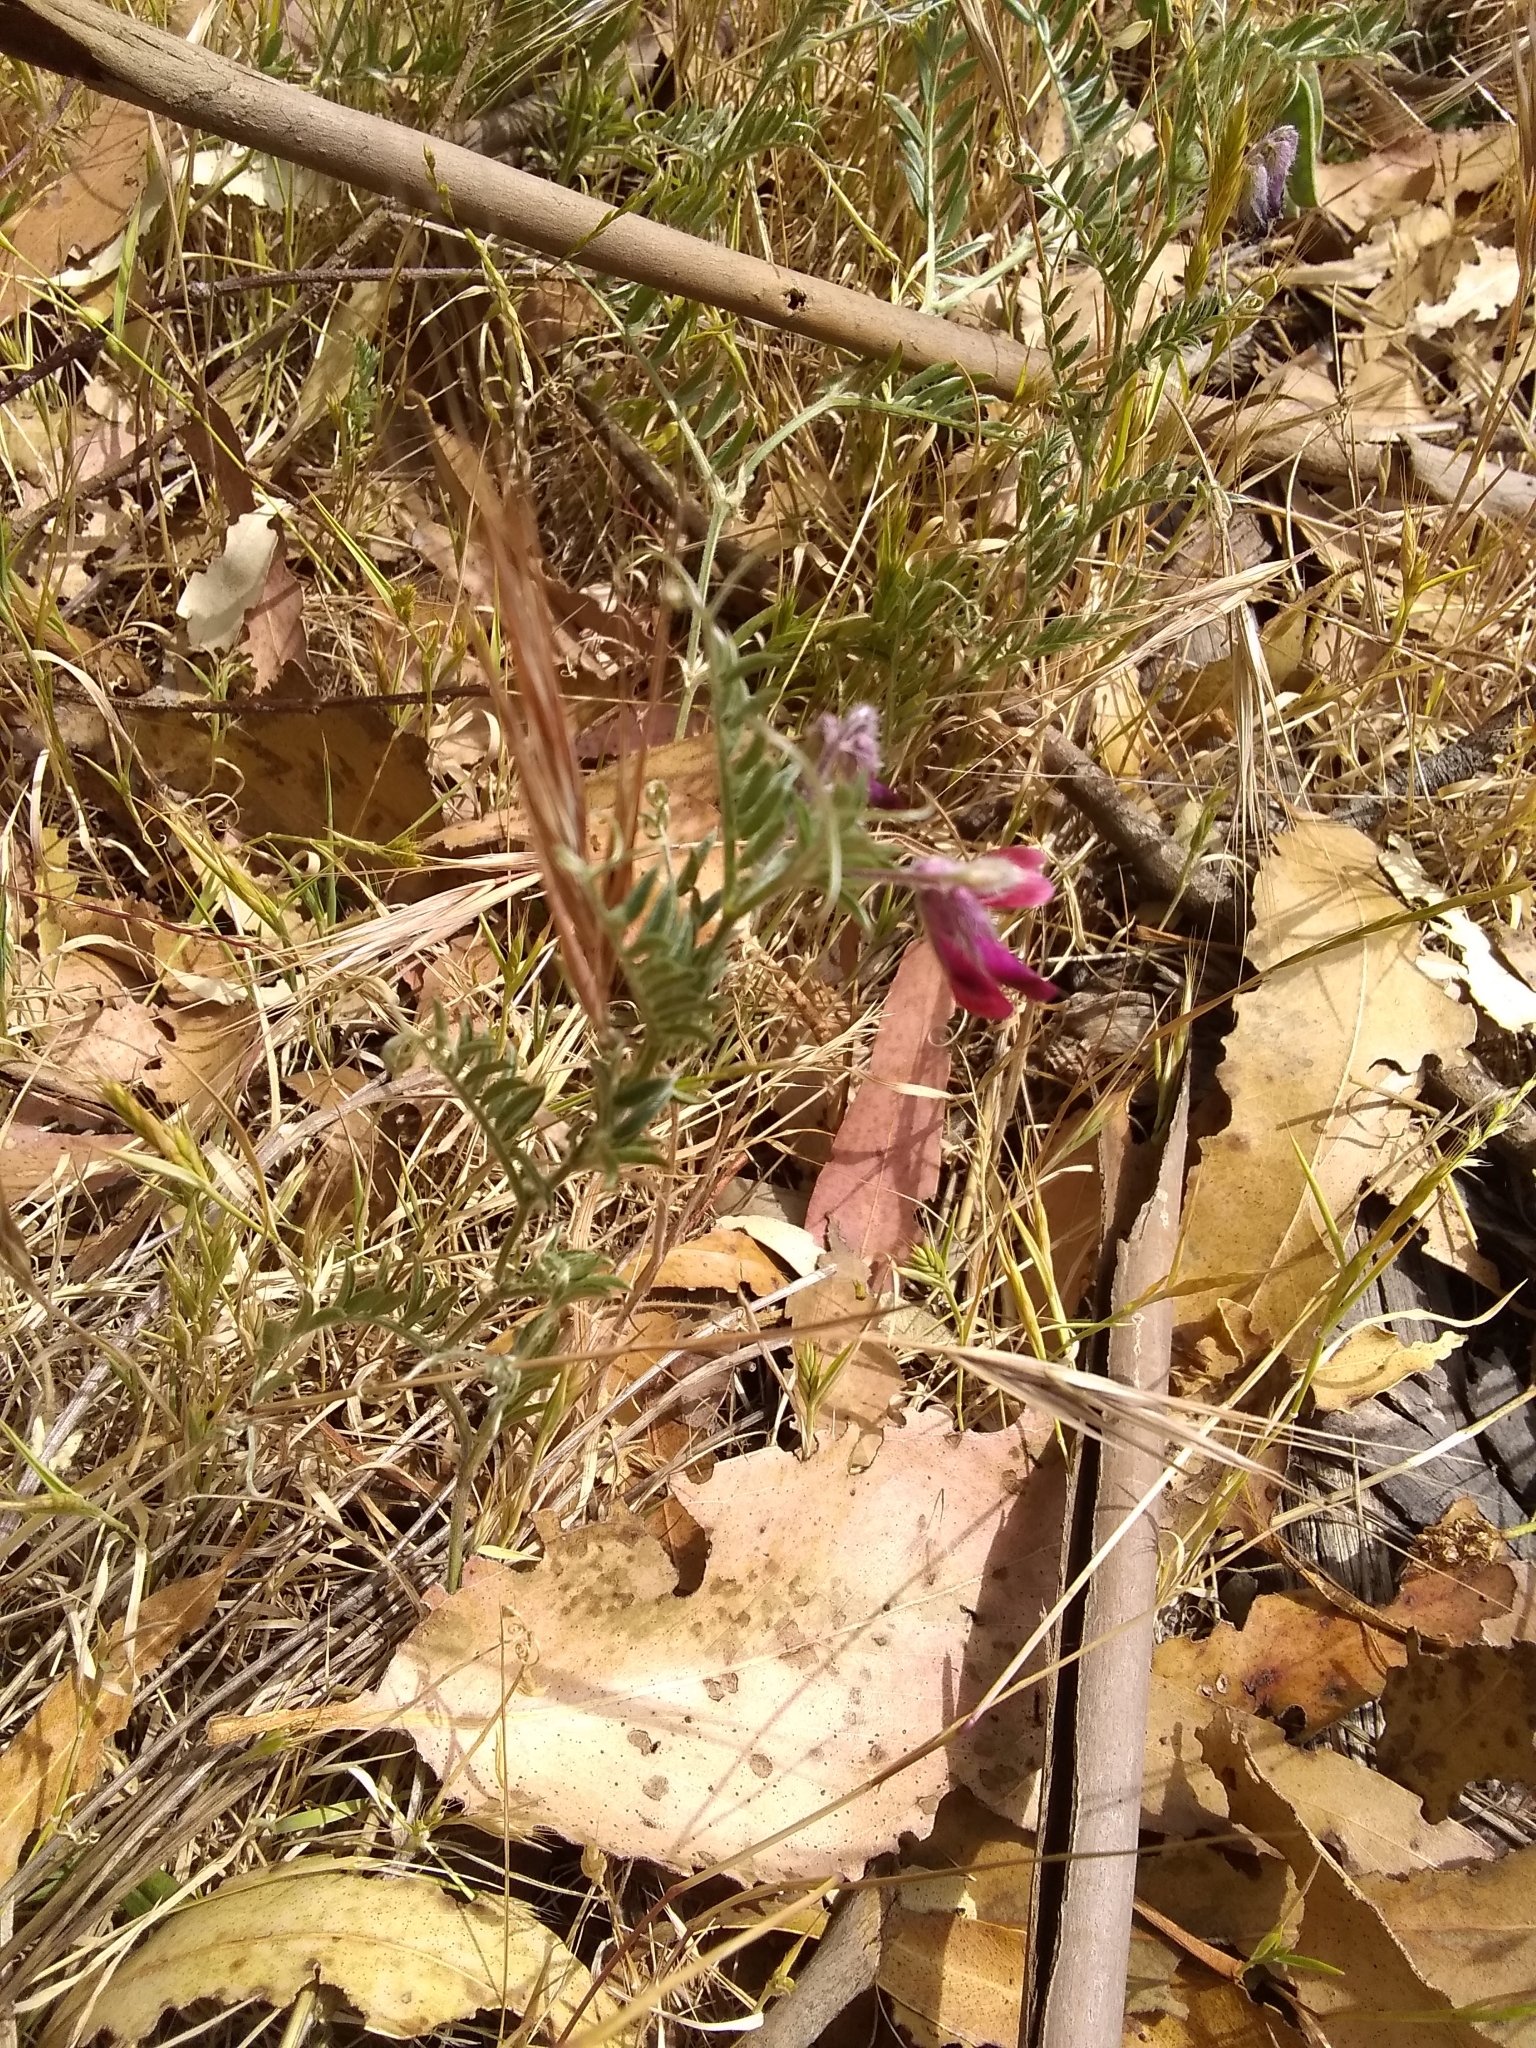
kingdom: Plantae
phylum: Tracheophyta
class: Magnoliopsida
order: Fabales
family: Fabaceae
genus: Vicia
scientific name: Vicia benghalensis
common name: Purple vetch
